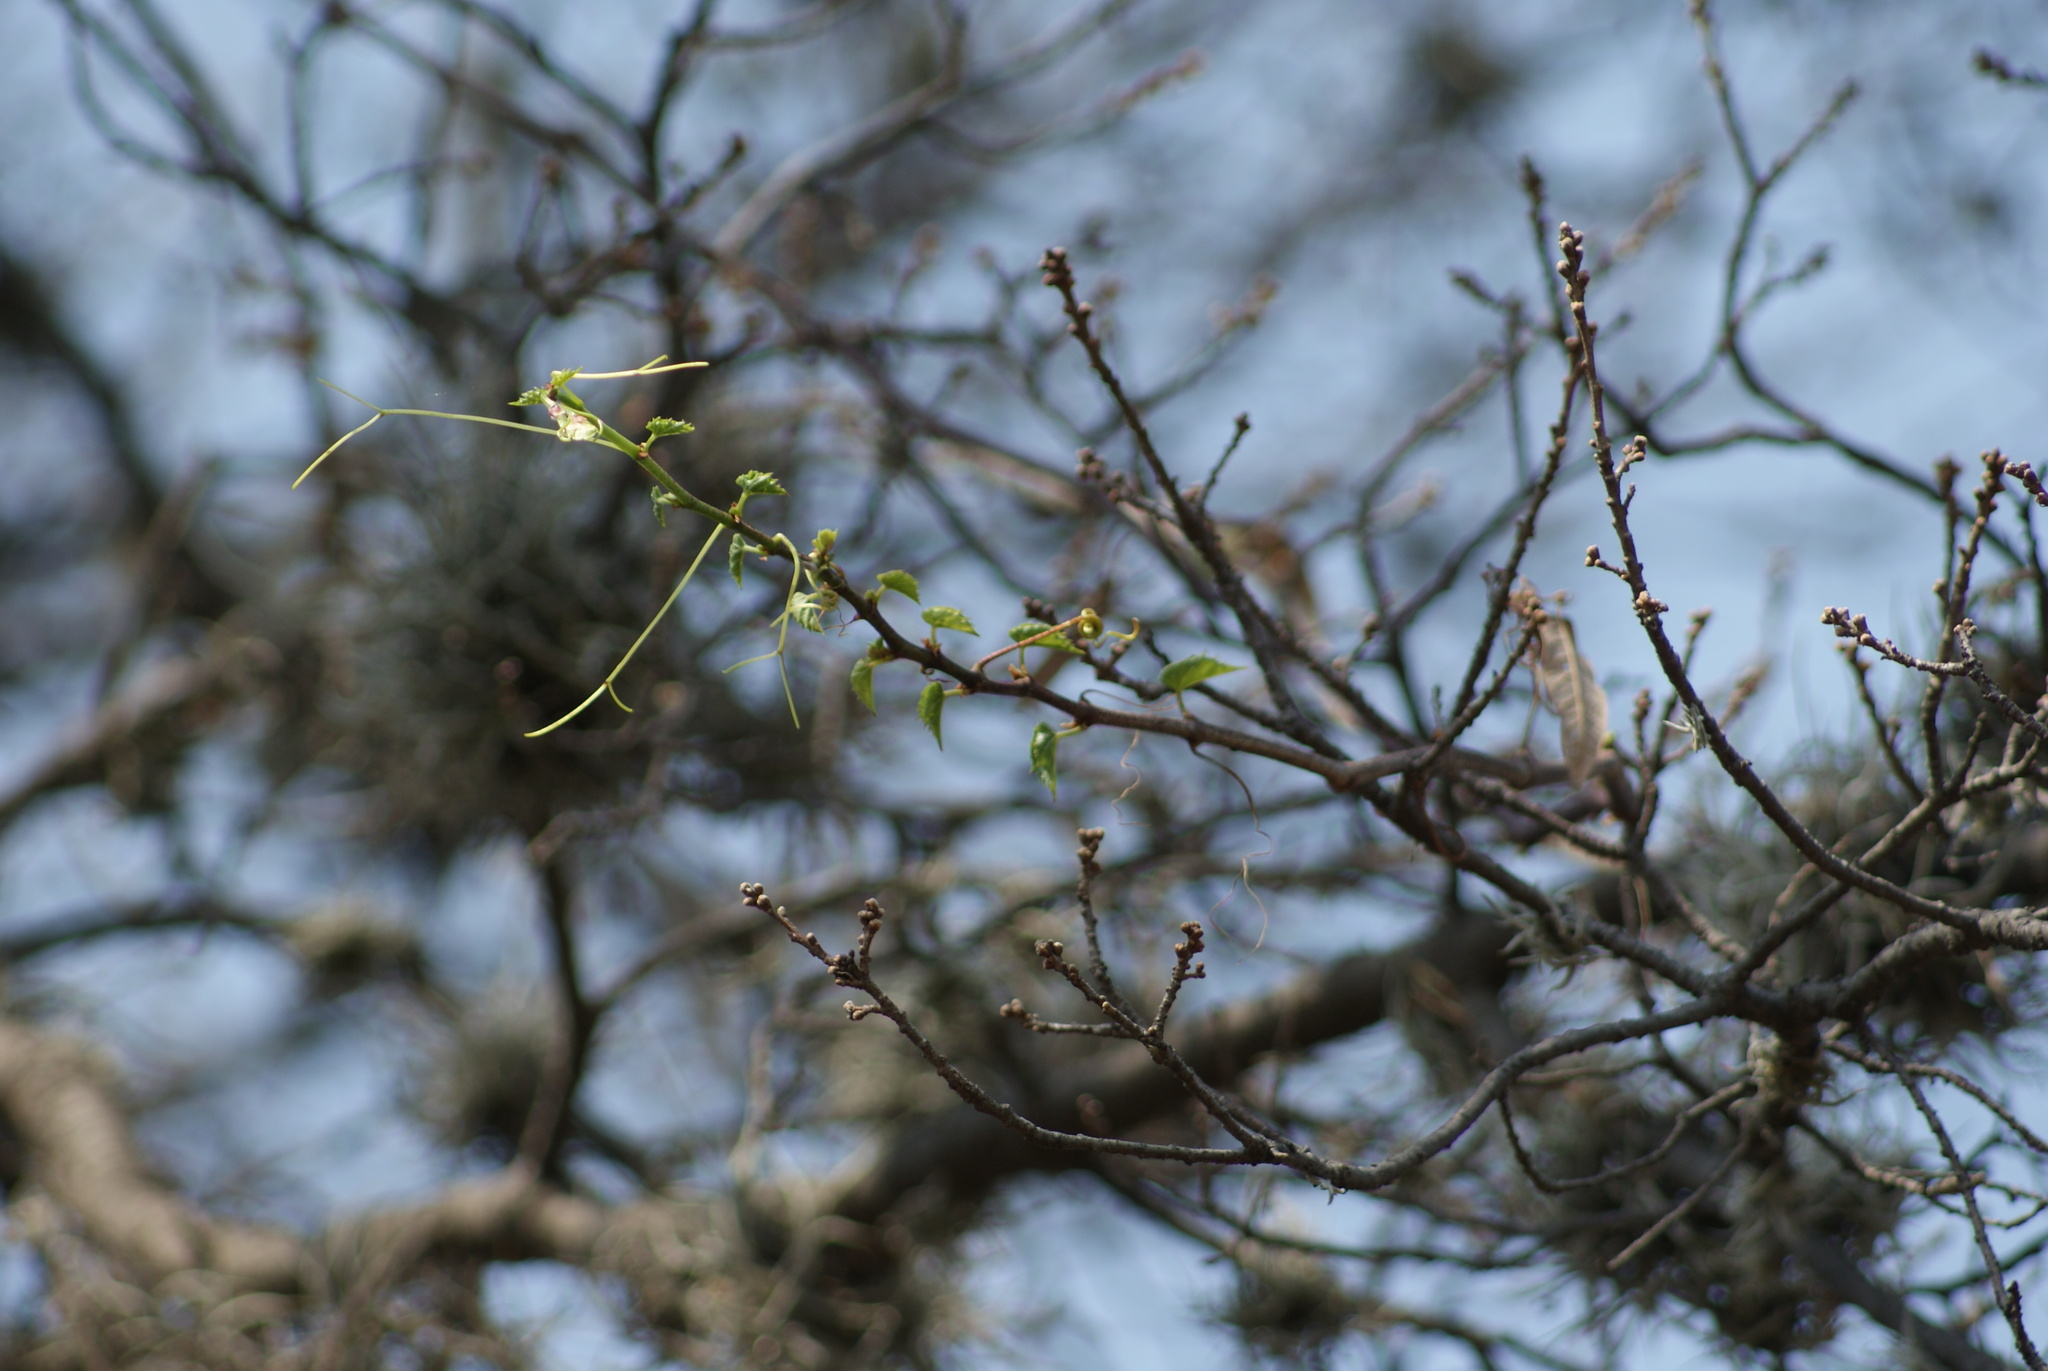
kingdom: Plantae
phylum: Tracheophyta
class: Magnoliopsida
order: Vitales
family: Vitaceae
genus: Cissus
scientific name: Cissus verticillata
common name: Princess vine
